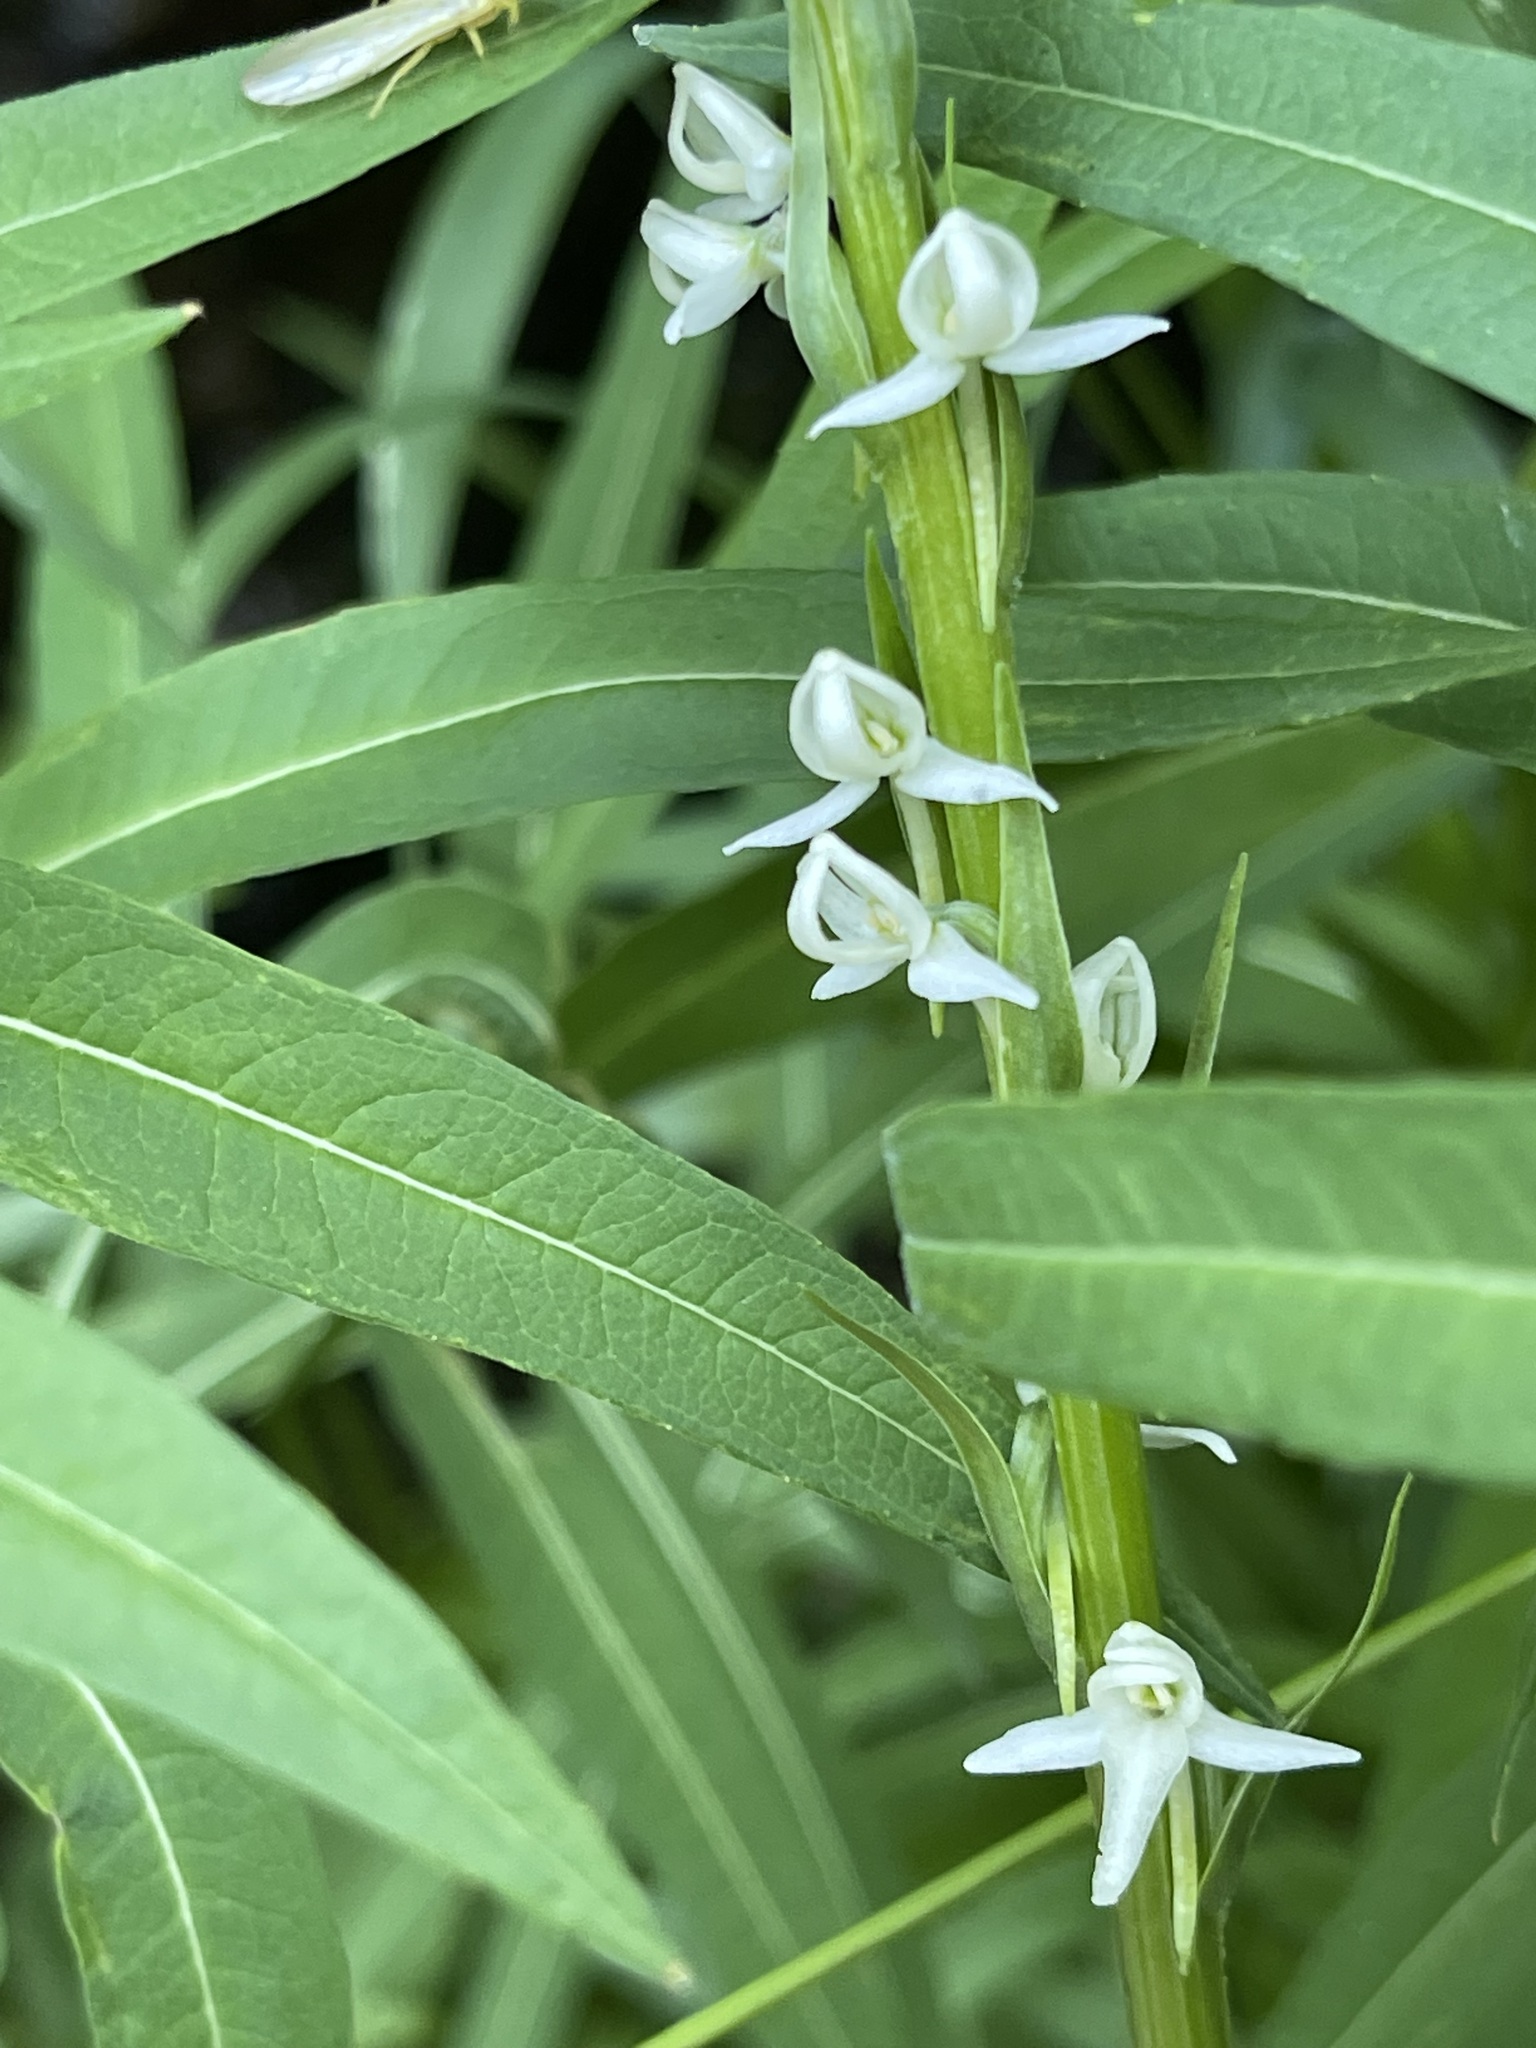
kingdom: Plantae
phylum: Tracheophyta
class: Liliopsida
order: Asparagales
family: Orchidaceae
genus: Platanthera
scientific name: Platanthera dilatata
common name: Bog candles
